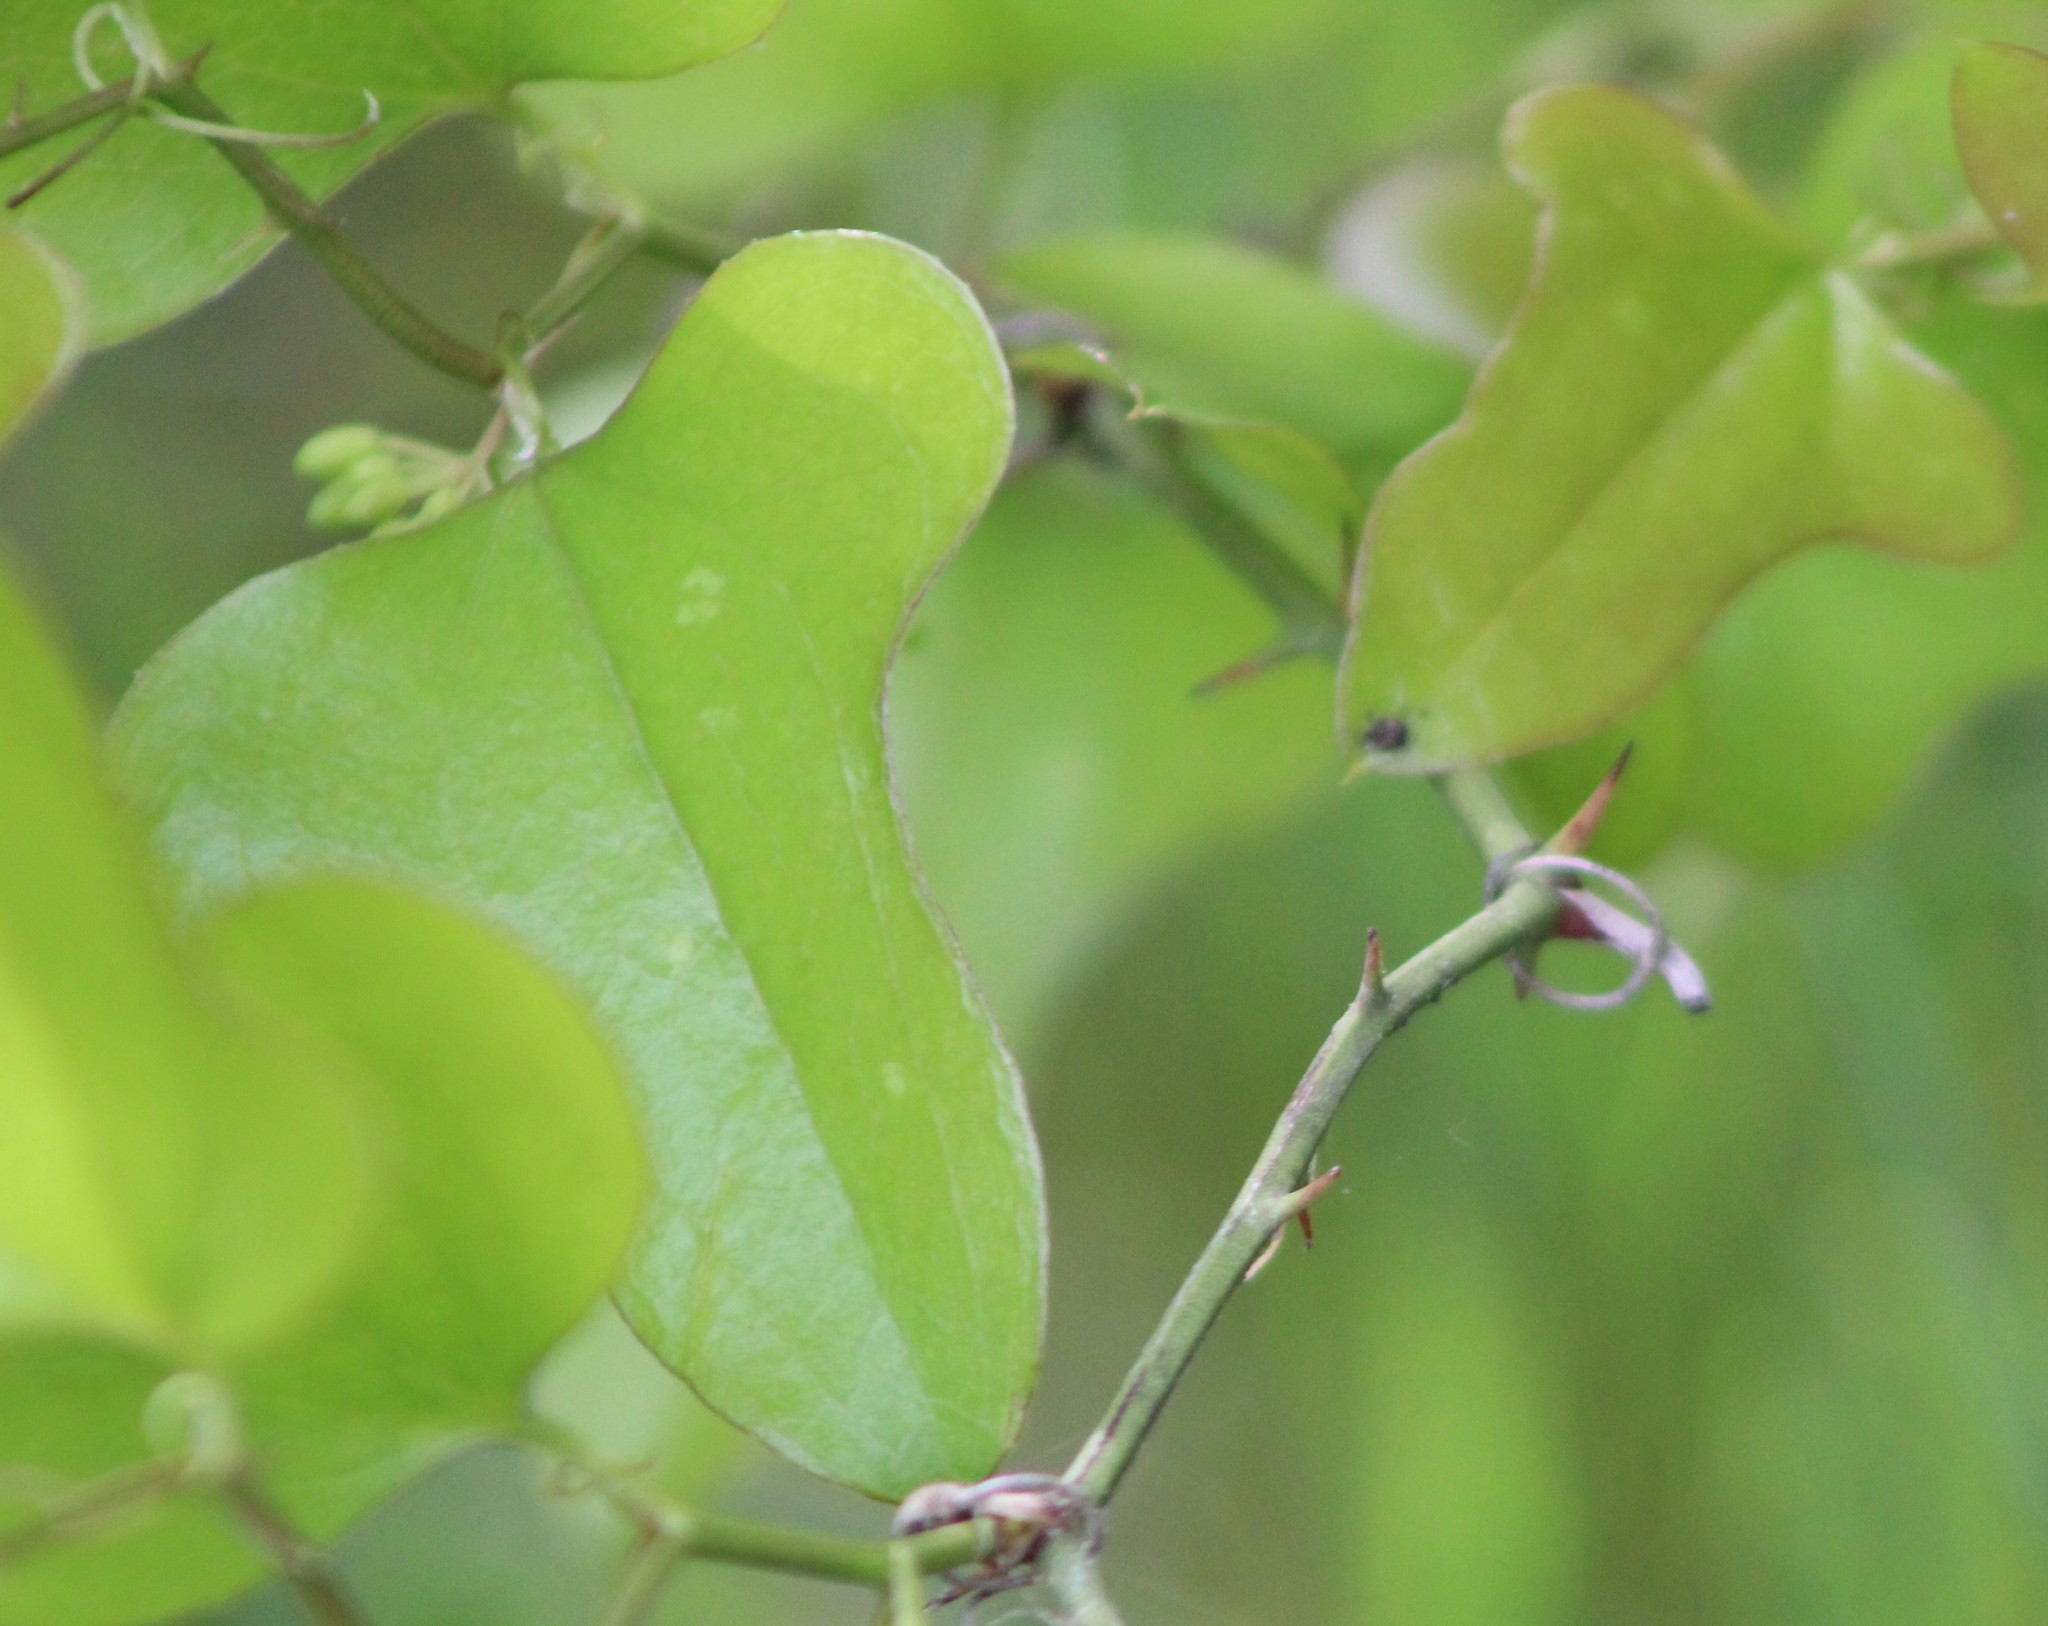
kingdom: Plantae
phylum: Tracheophyta
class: Liliopsida
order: Liliales
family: Smilacaceae
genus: Smilax
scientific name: Smilax bona-nox
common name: Catbrier
